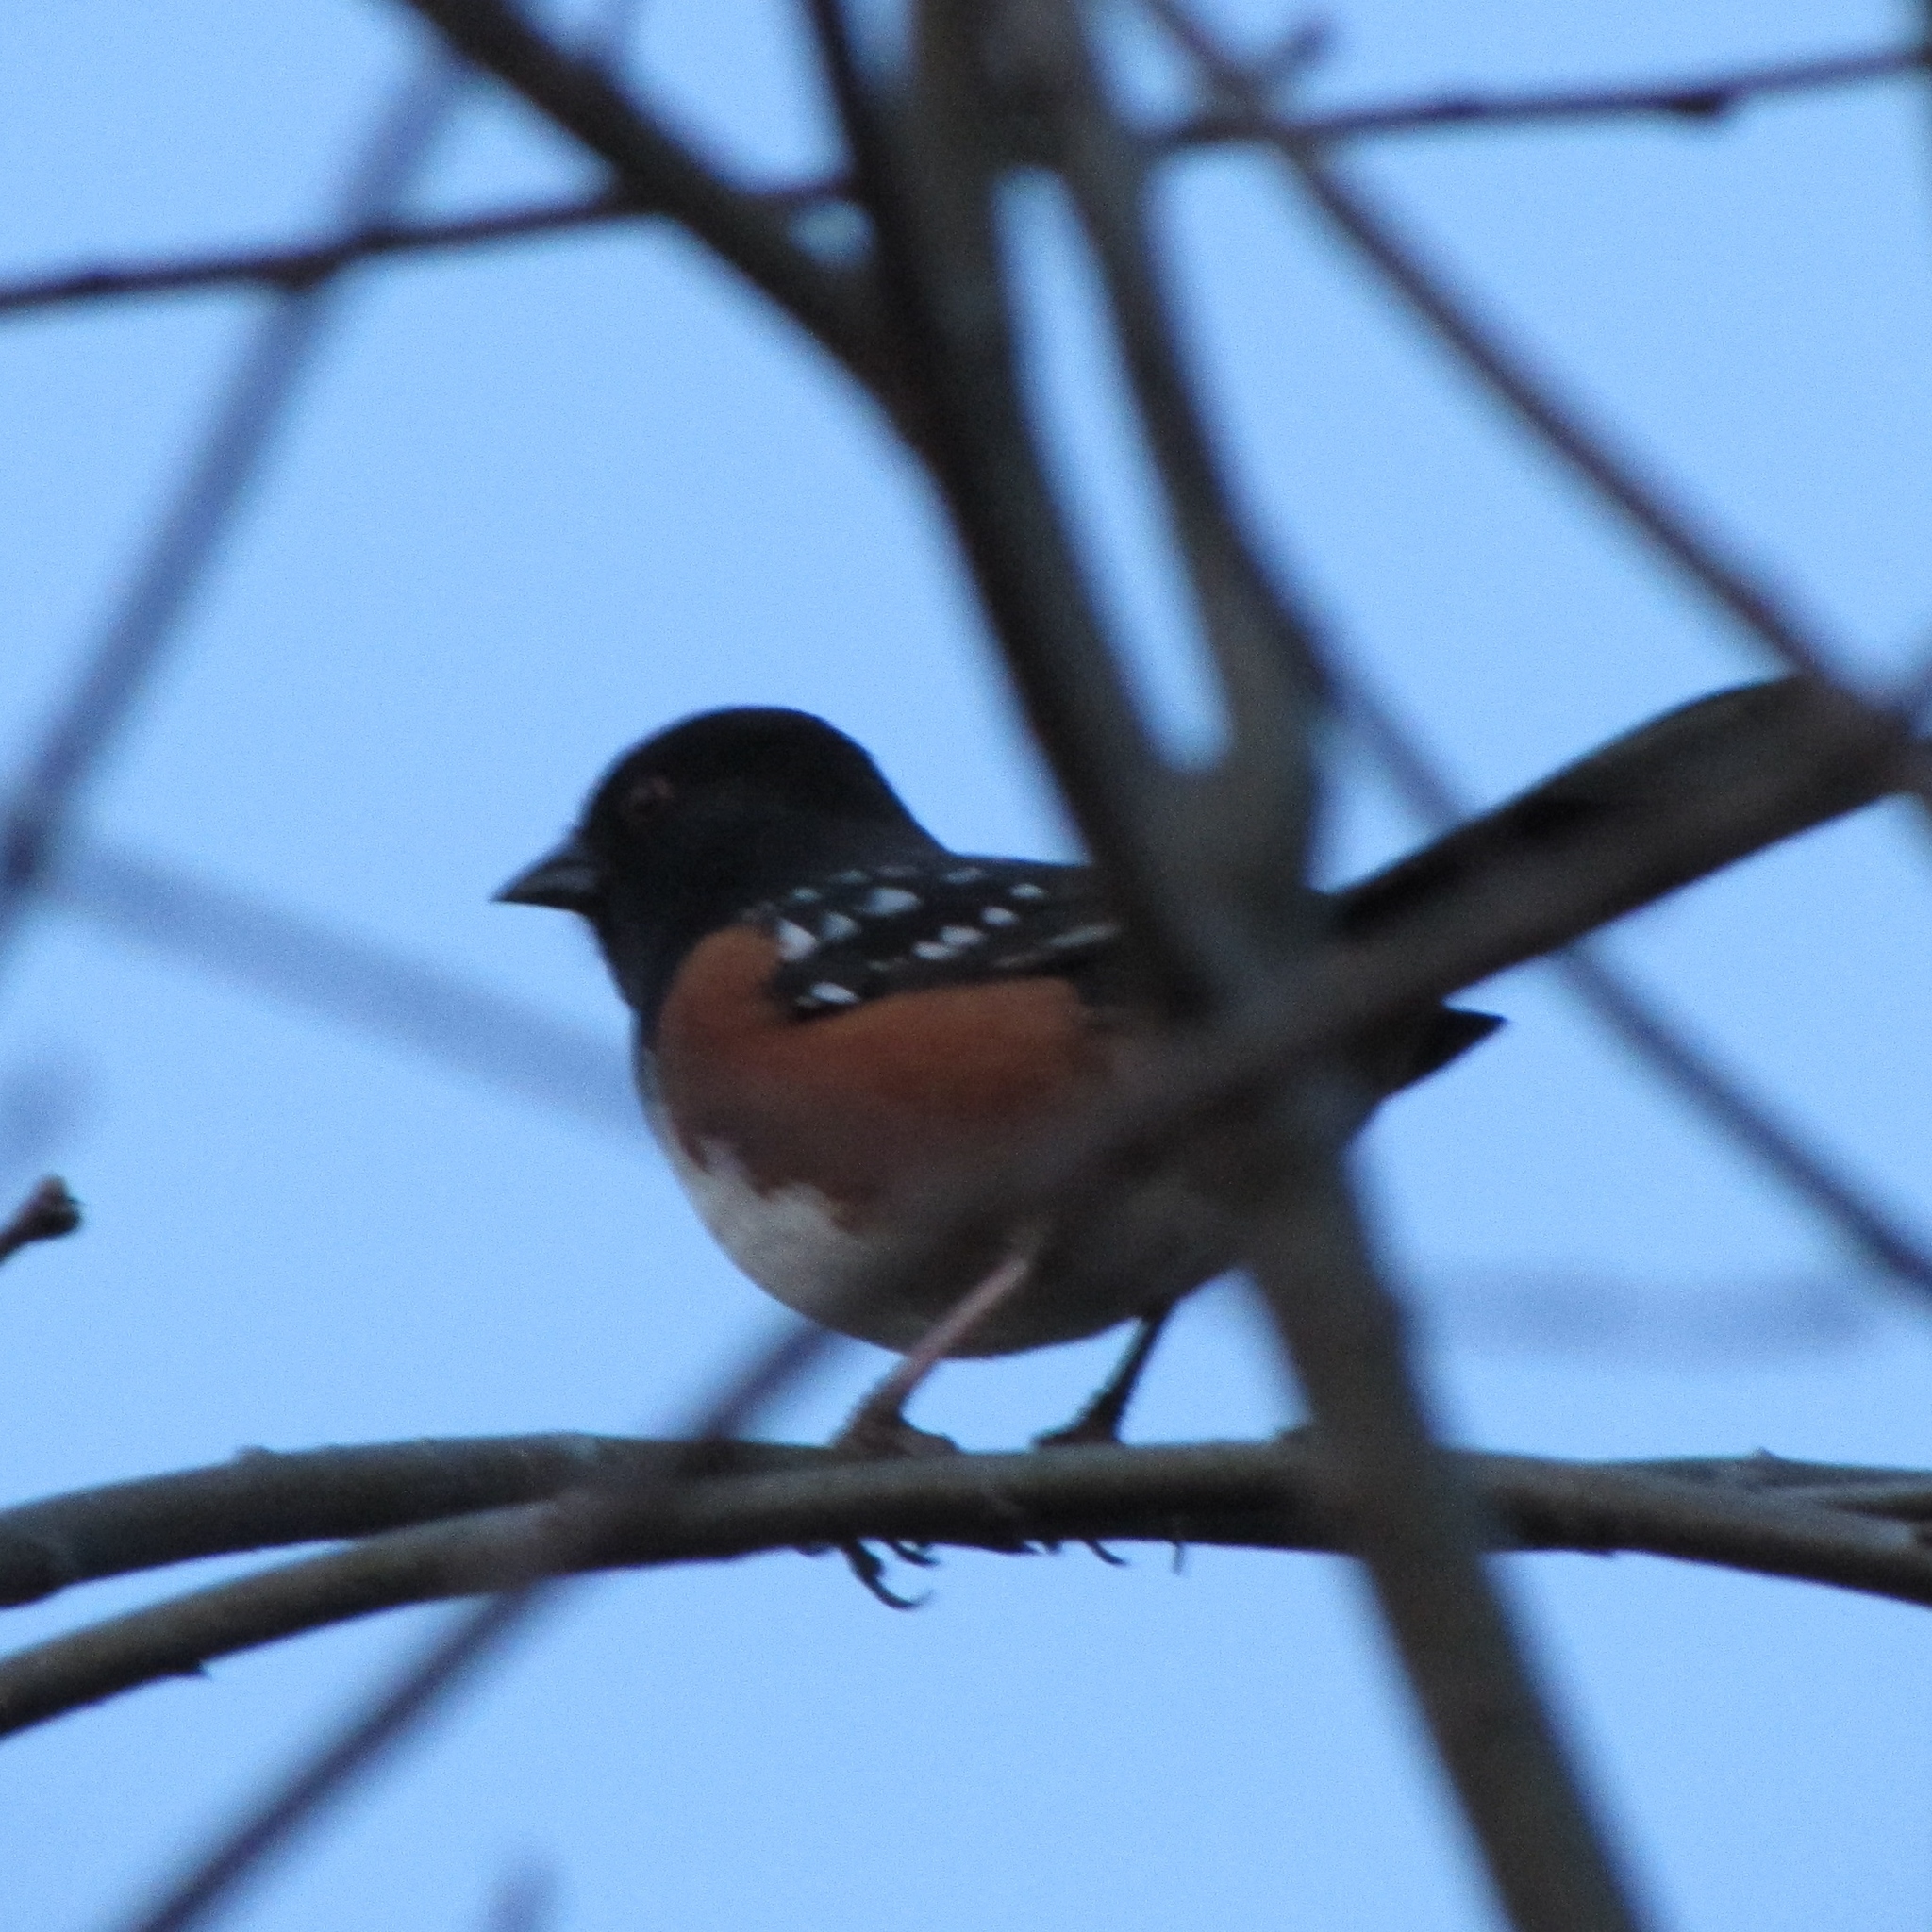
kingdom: Animalia
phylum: Chordata
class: Aves
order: Passeriformes
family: Passerellidae
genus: Pipilo
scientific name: Pipilo maculatus
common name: Spotted towhee
